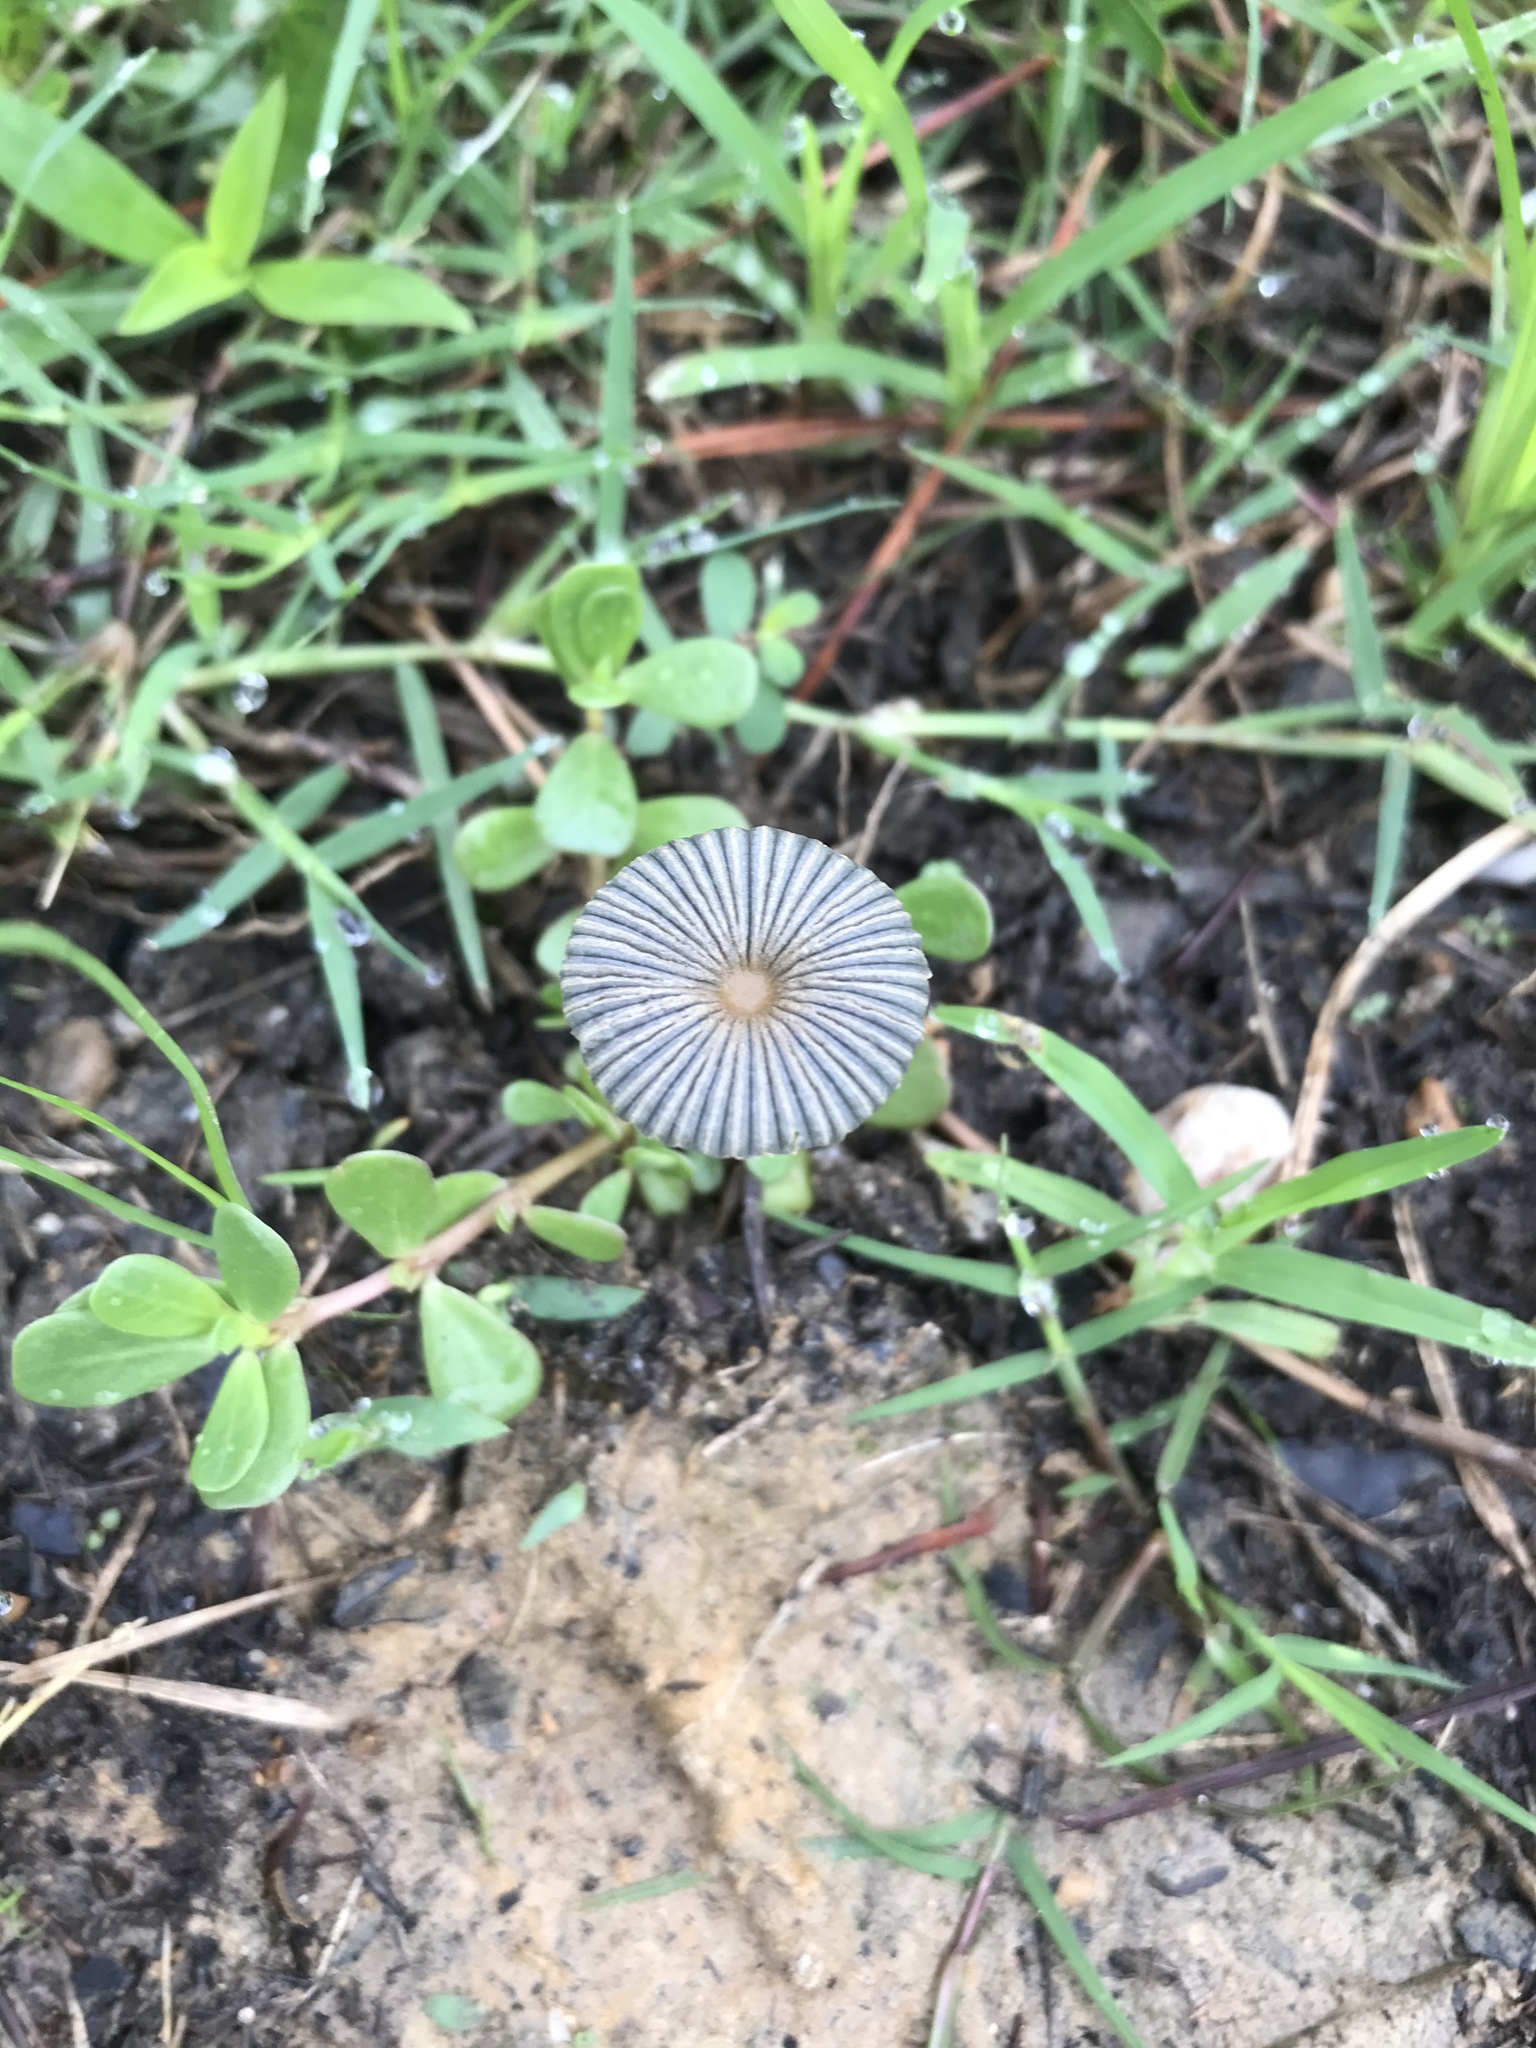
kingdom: Fungi
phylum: Basidiomycota
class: Agaricomycetes
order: Agaricales
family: Psathyrellaceae
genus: Parasola
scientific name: Parasola plicatilis
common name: Pleated inkcap
